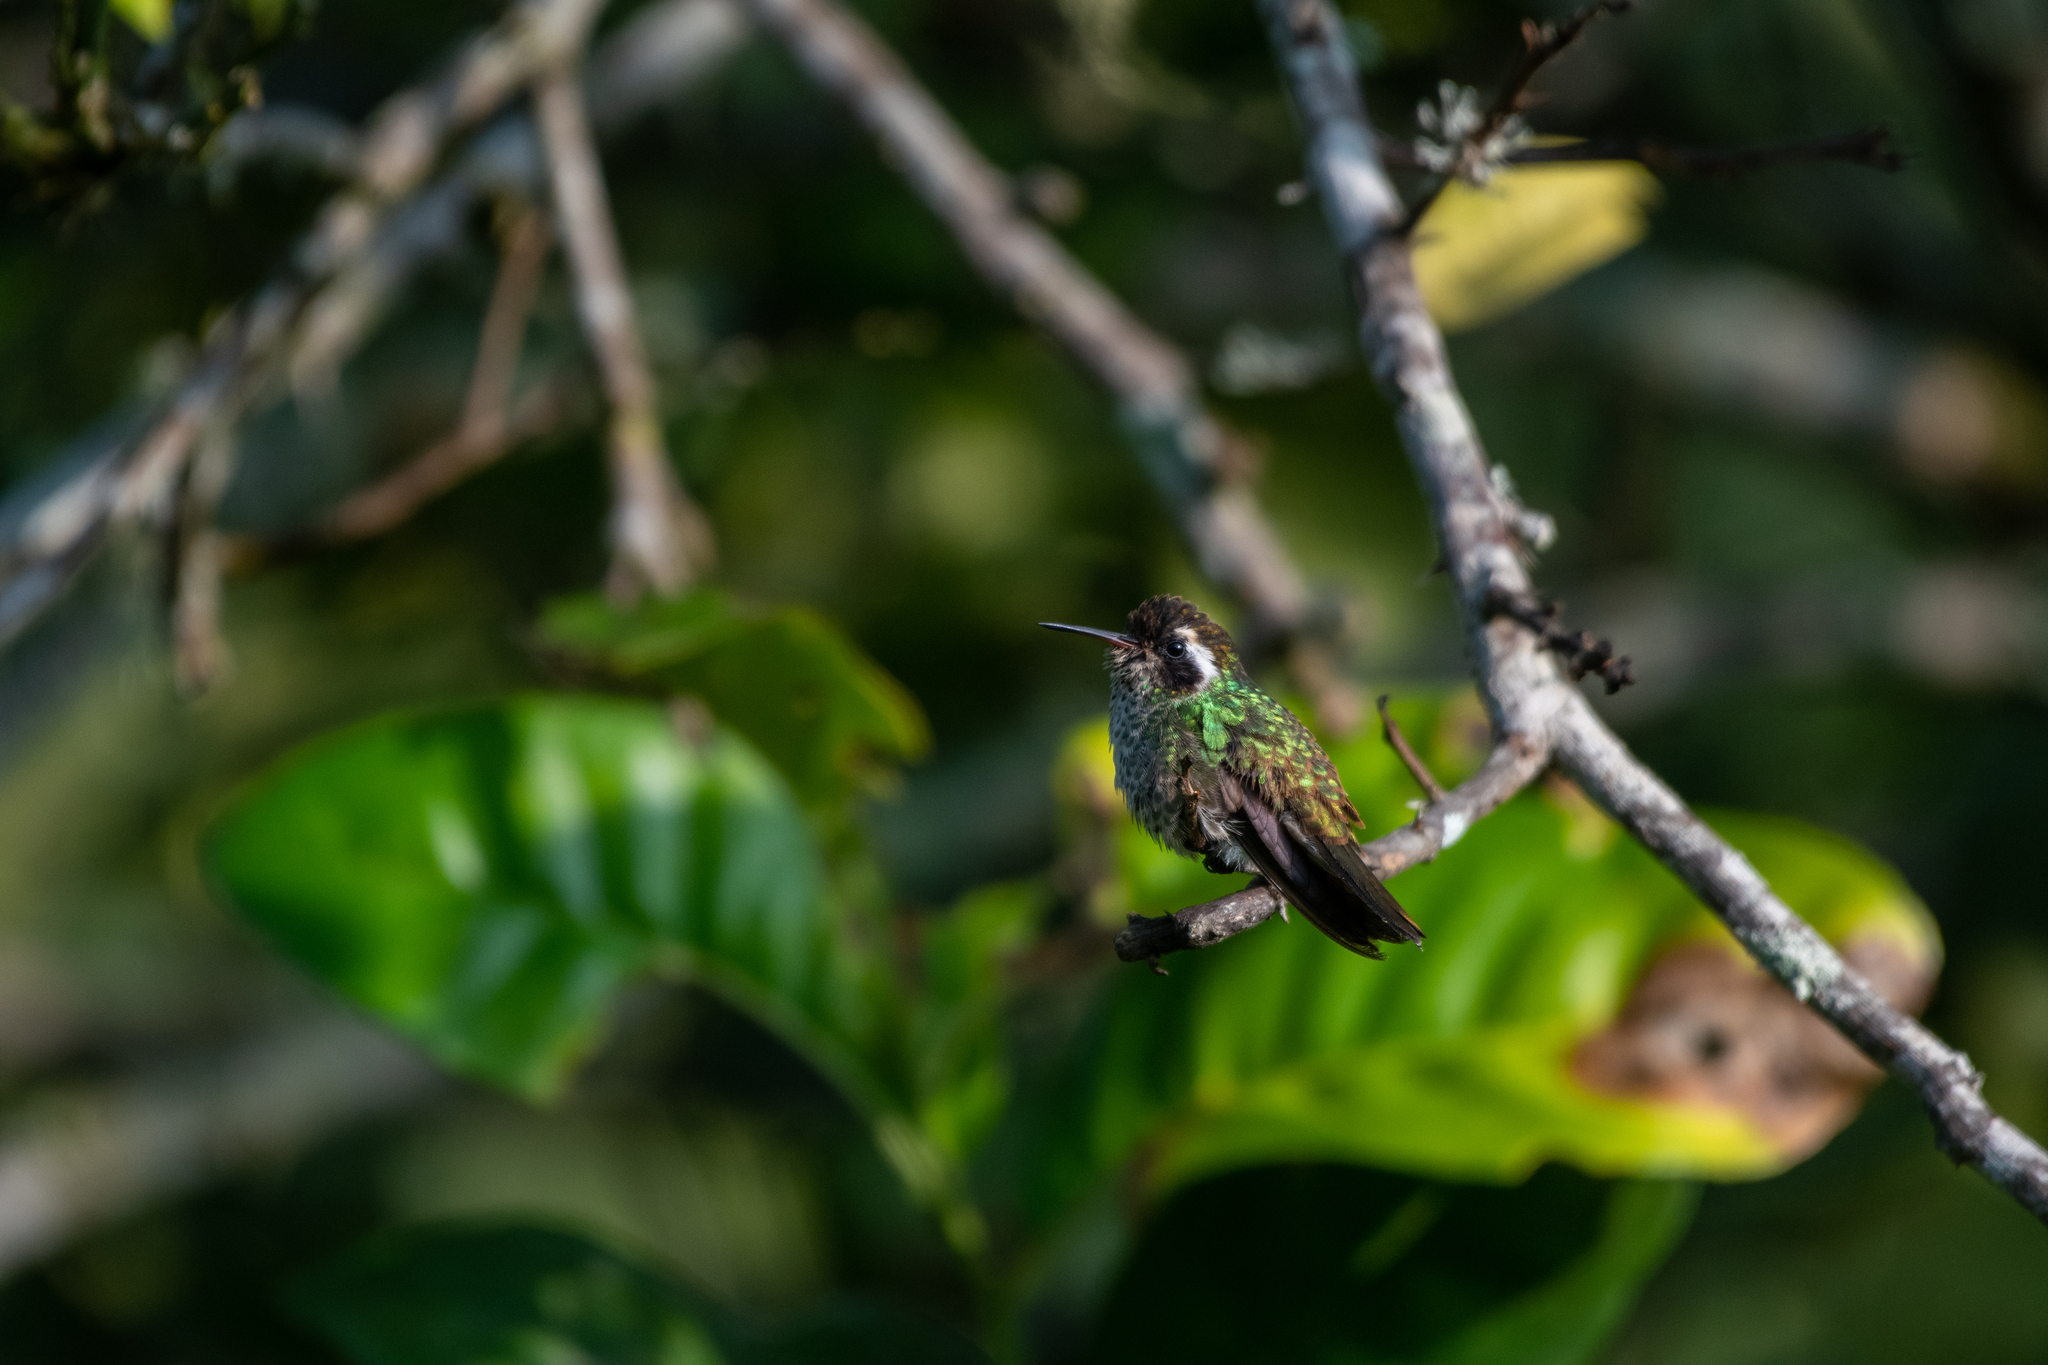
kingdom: Animalia
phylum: Chordata
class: Aves
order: Apodiformes
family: Trochilidae
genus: Basilinna
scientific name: Basilinna leucotis
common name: White-eared hummingbird
